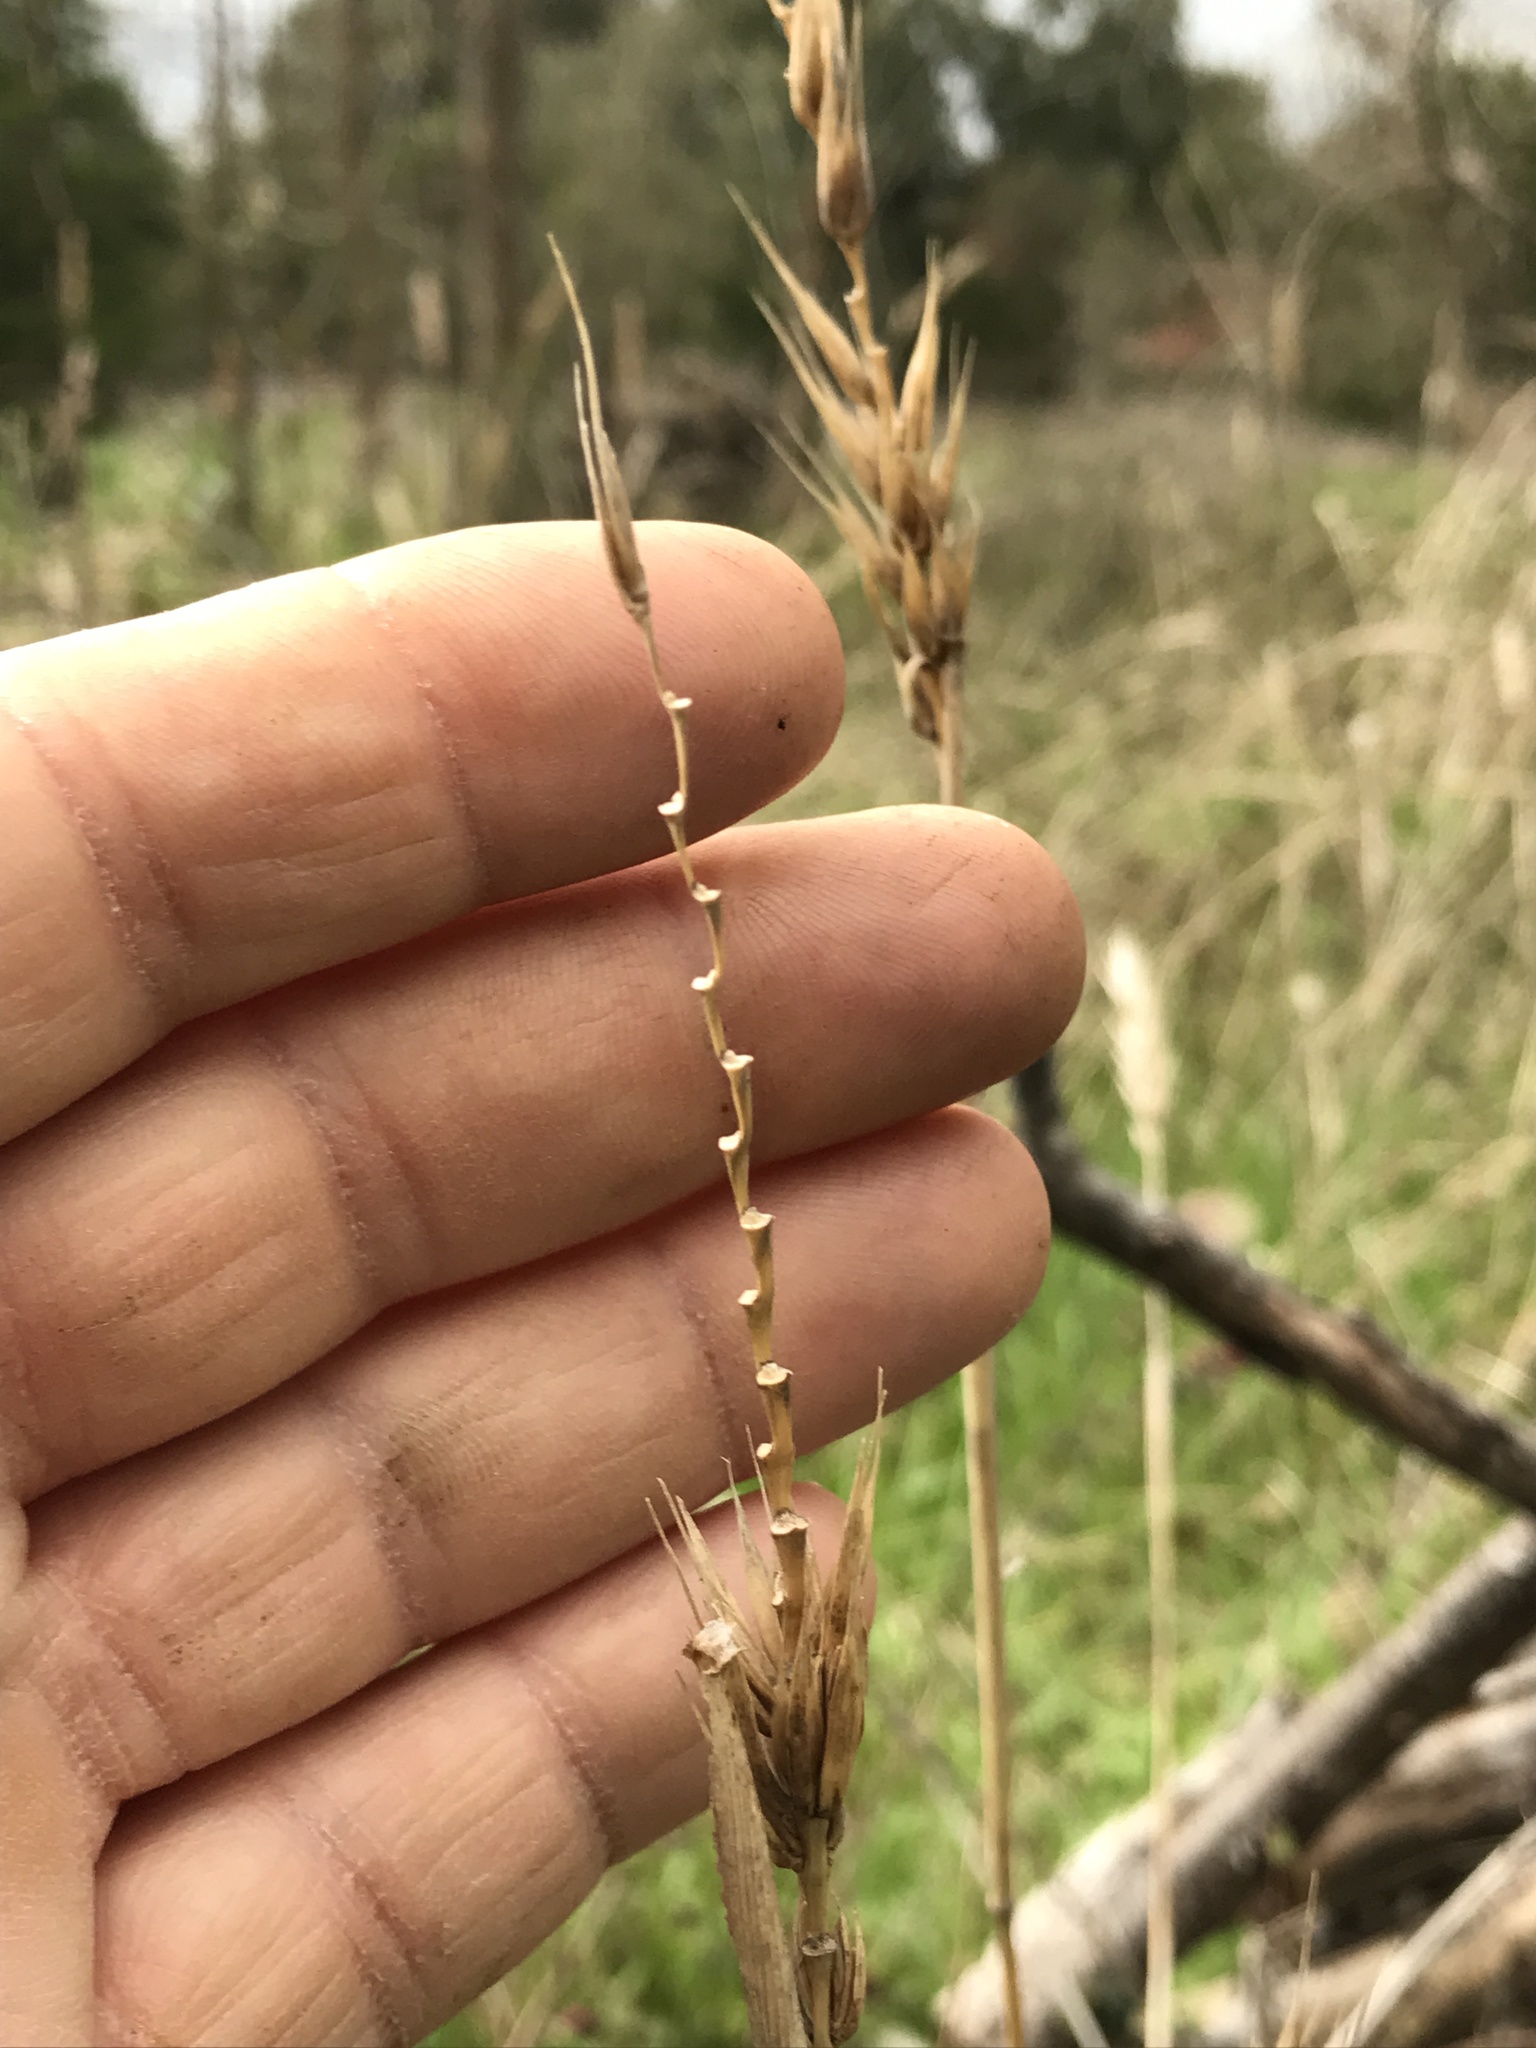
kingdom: Plantae
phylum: Tracheophyta
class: Liliopsida
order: Poales
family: Poaceae
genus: Elymus
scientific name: Elymus virginicus
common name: Common eastern wildrye
